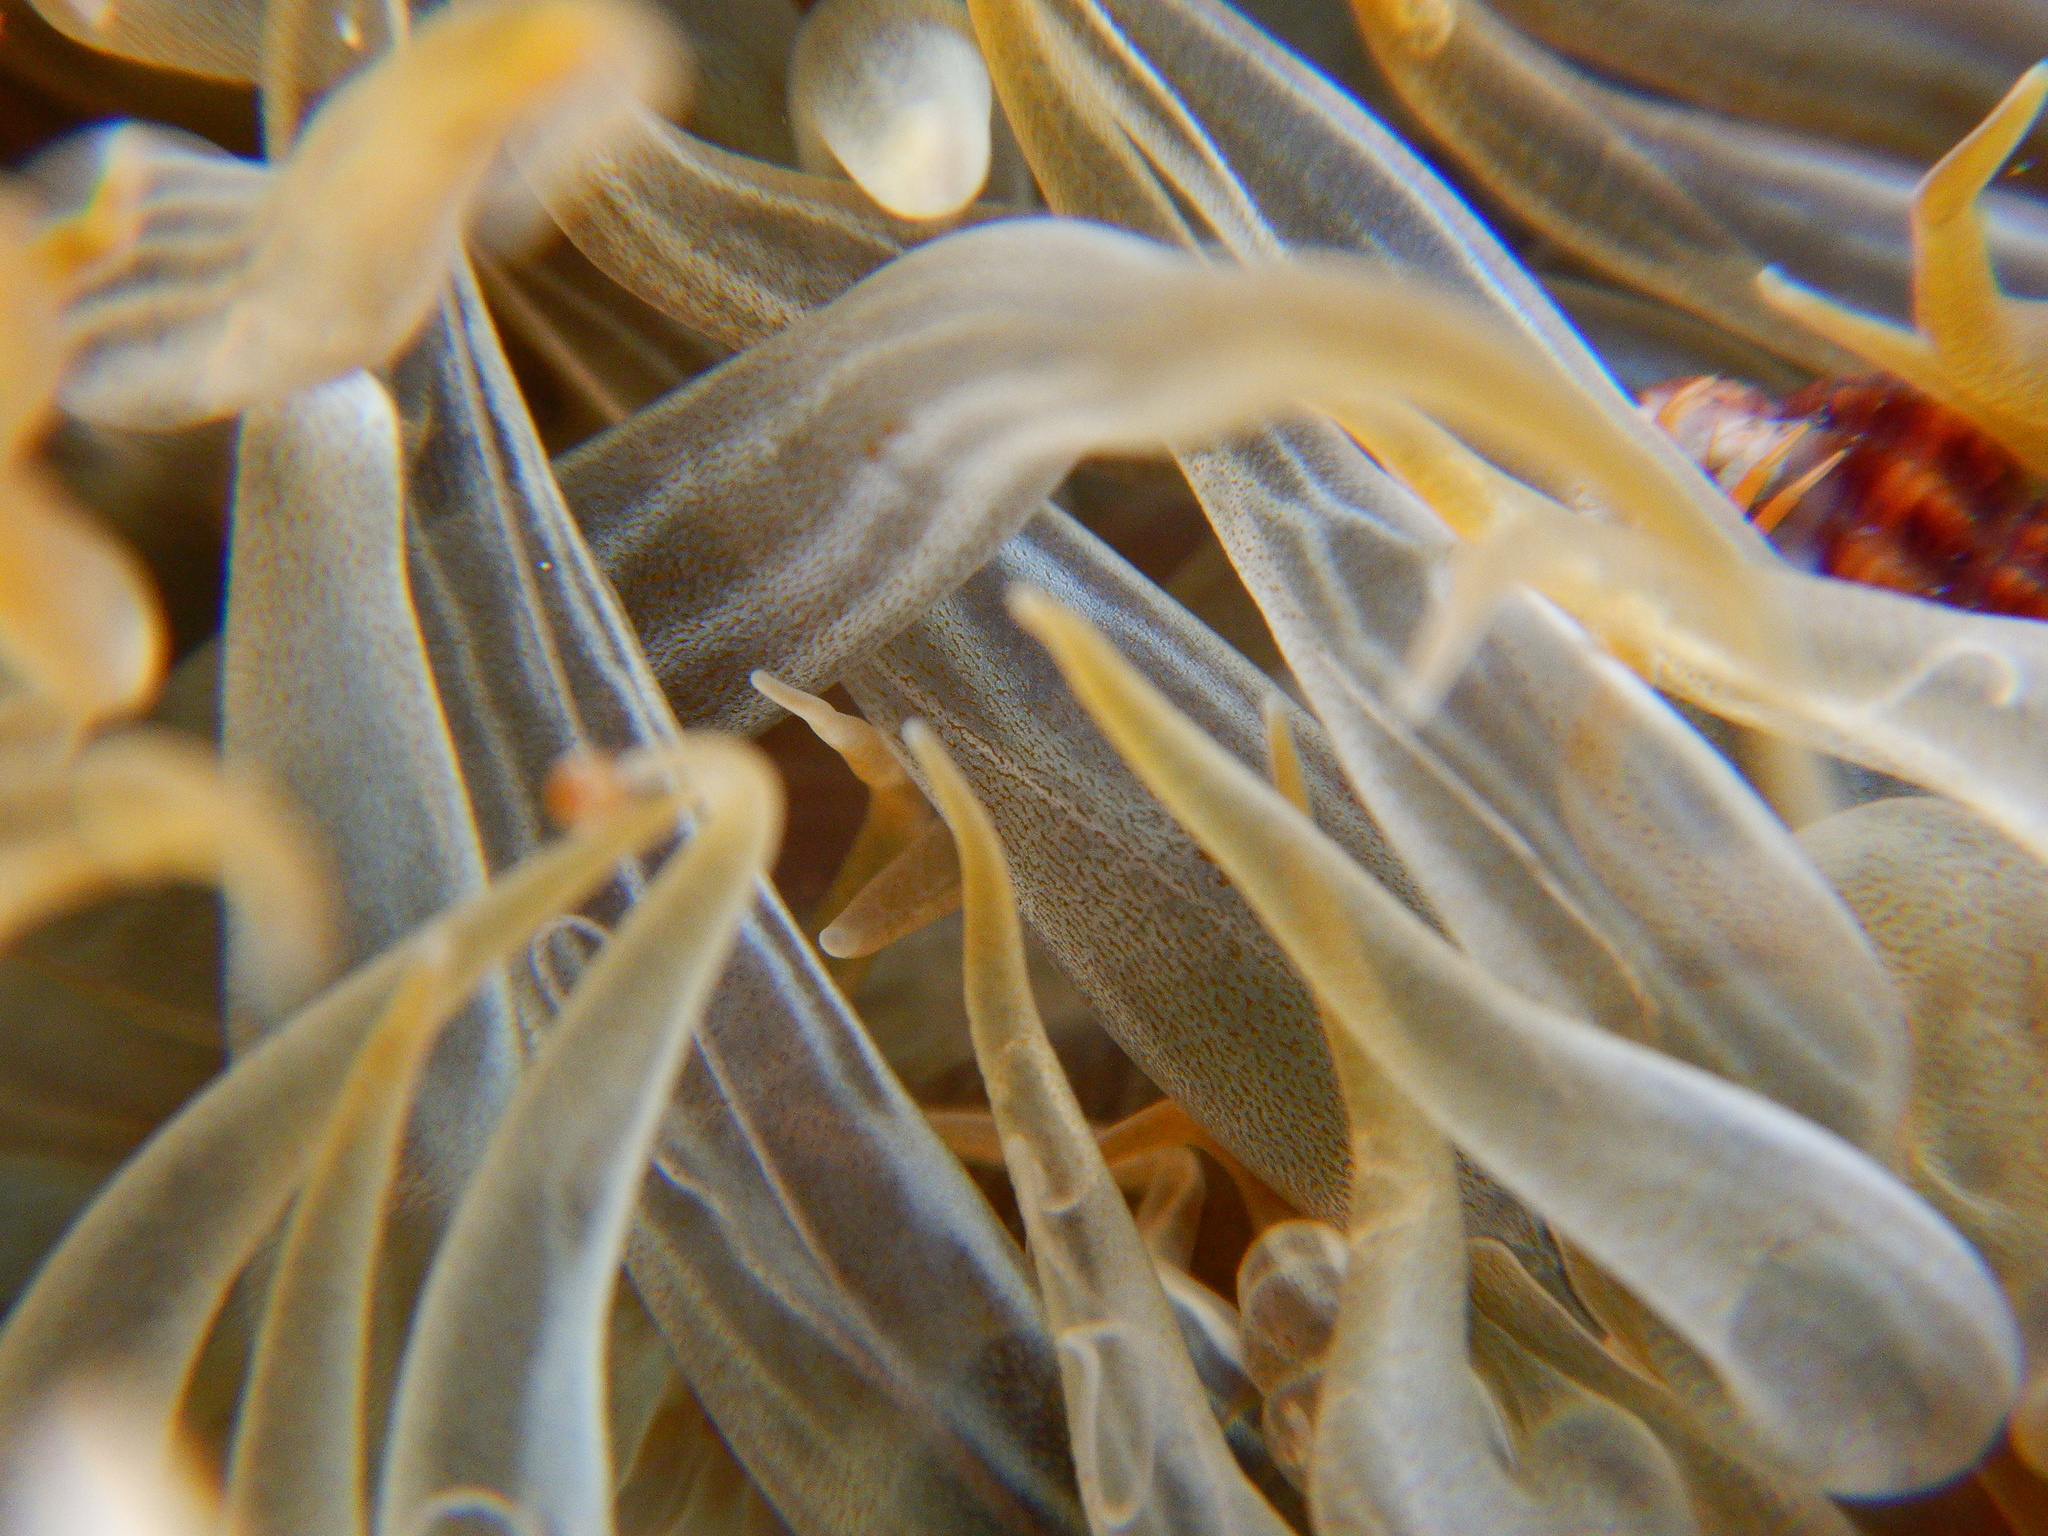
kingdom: Animalia
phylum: Cnidaria
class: Anthozoa
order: Actiniaria
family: Aiptasiidae
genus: Aiptasia
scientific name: Aiptasia mutabilis
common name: Trumpet anemone
